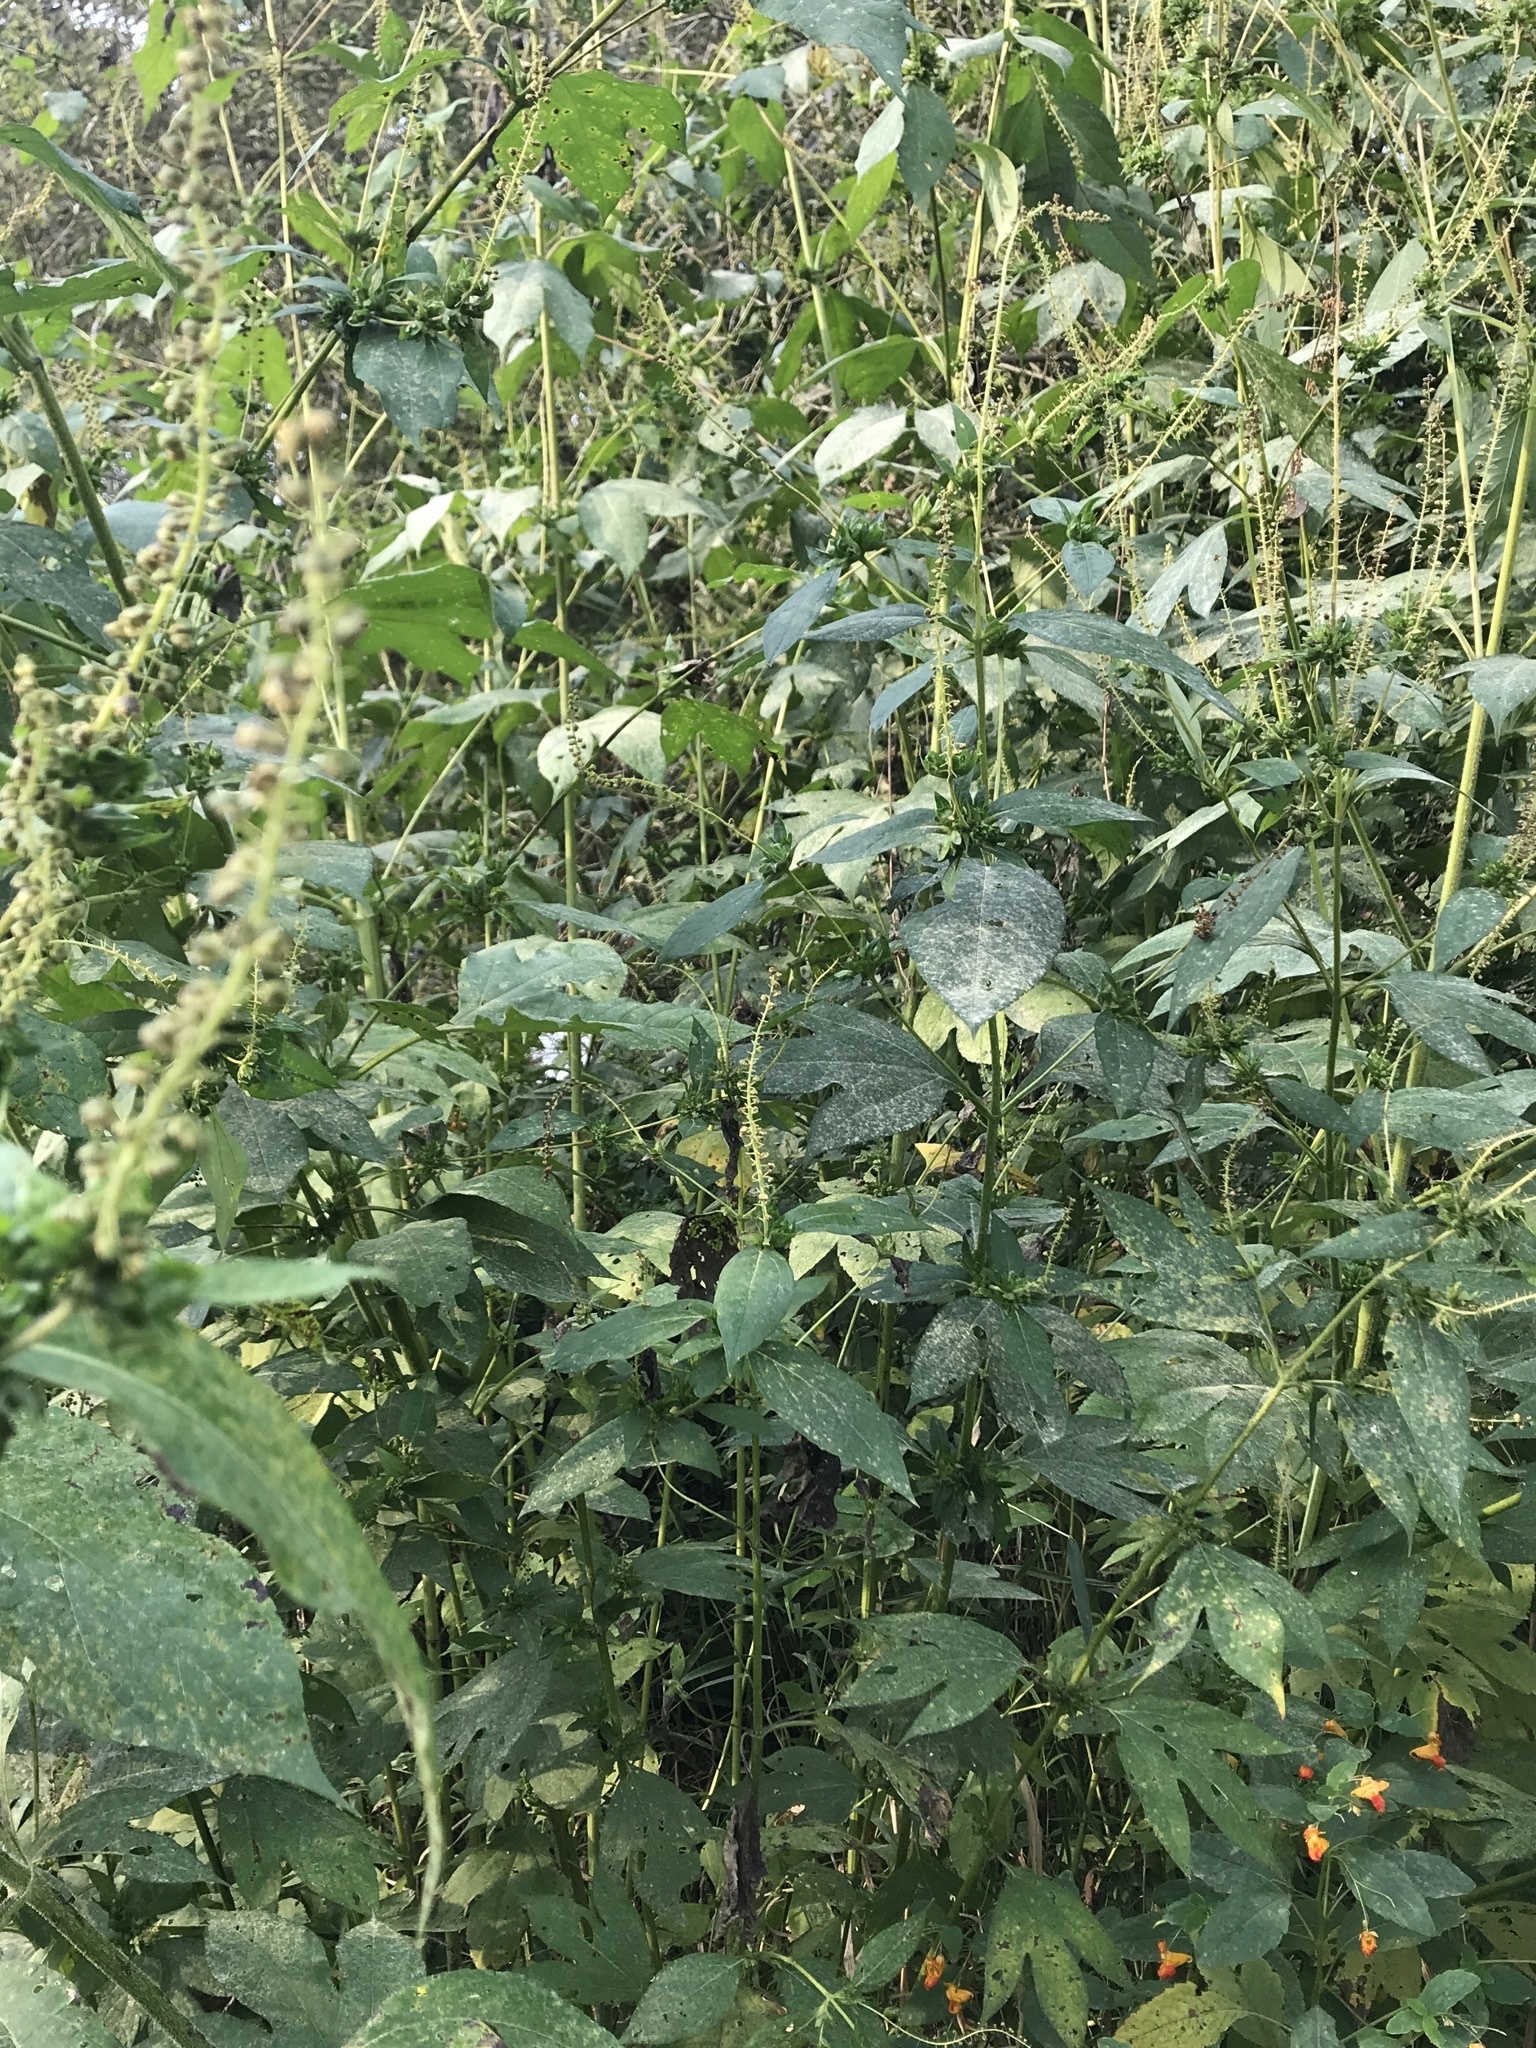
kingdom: Plantae
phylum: Tracheophyta
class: Magnoliopsida
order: Asterales
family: Asteraceae
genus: Ambrosia
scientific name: Ambrosia trifida
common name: Giant ragweed
